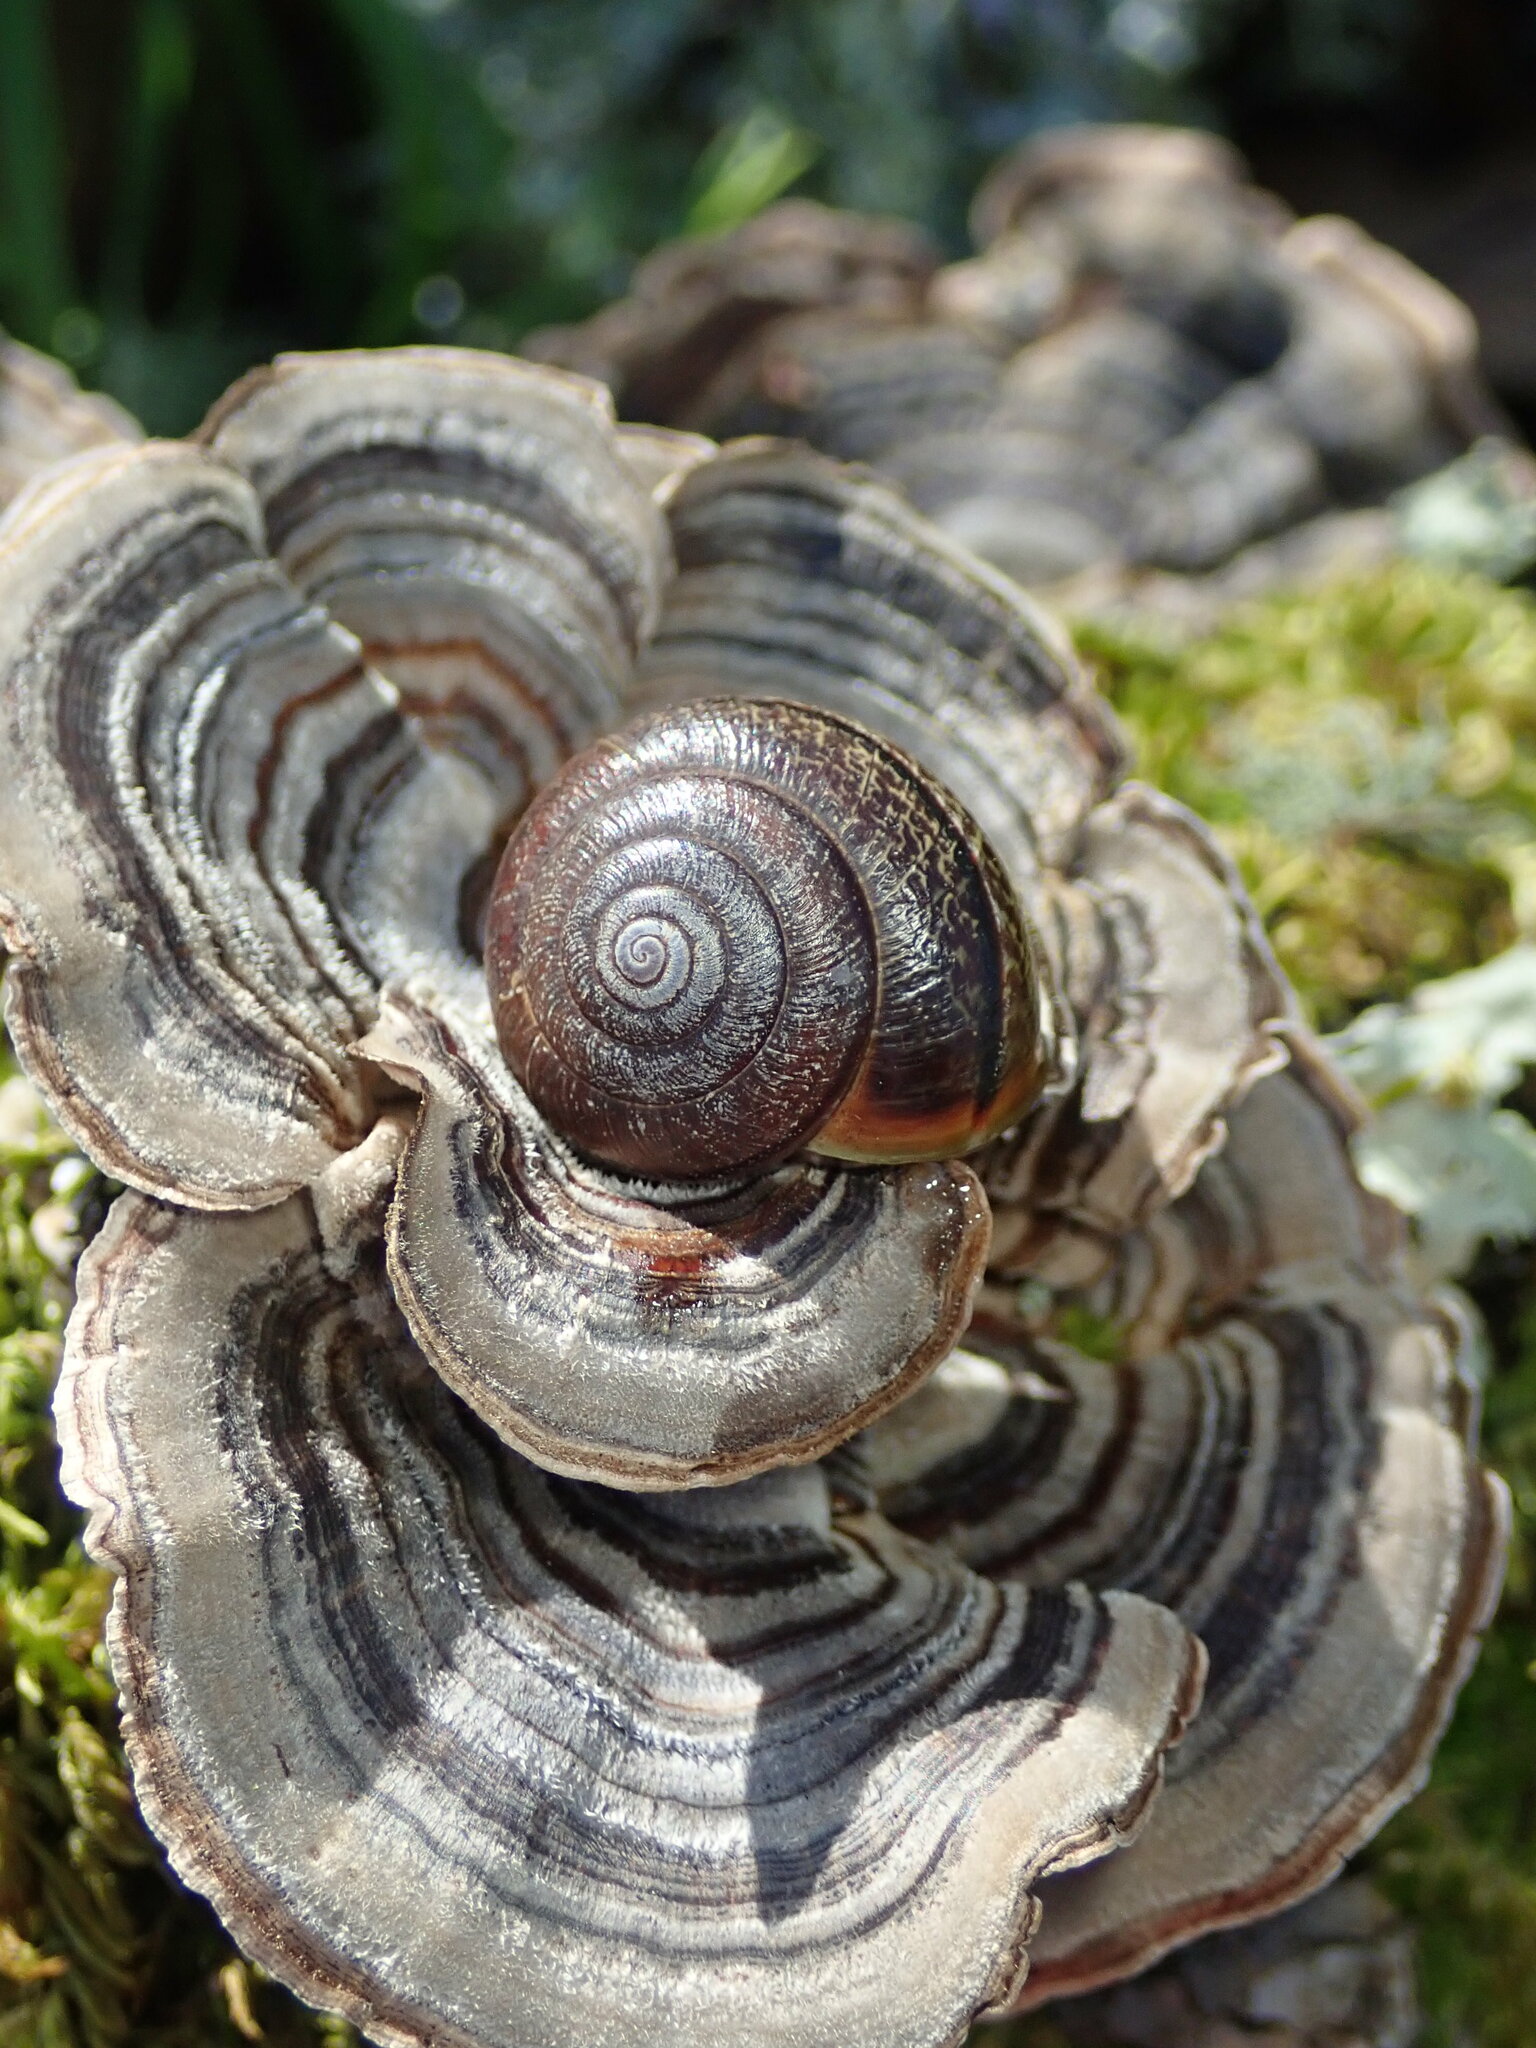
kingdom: Animalia
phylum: Mollusca
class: Gastropoda
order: Stylommatophora
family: Xanthonychidae
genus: Helminthoglypta
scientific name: Helminthoglypta sonoma
